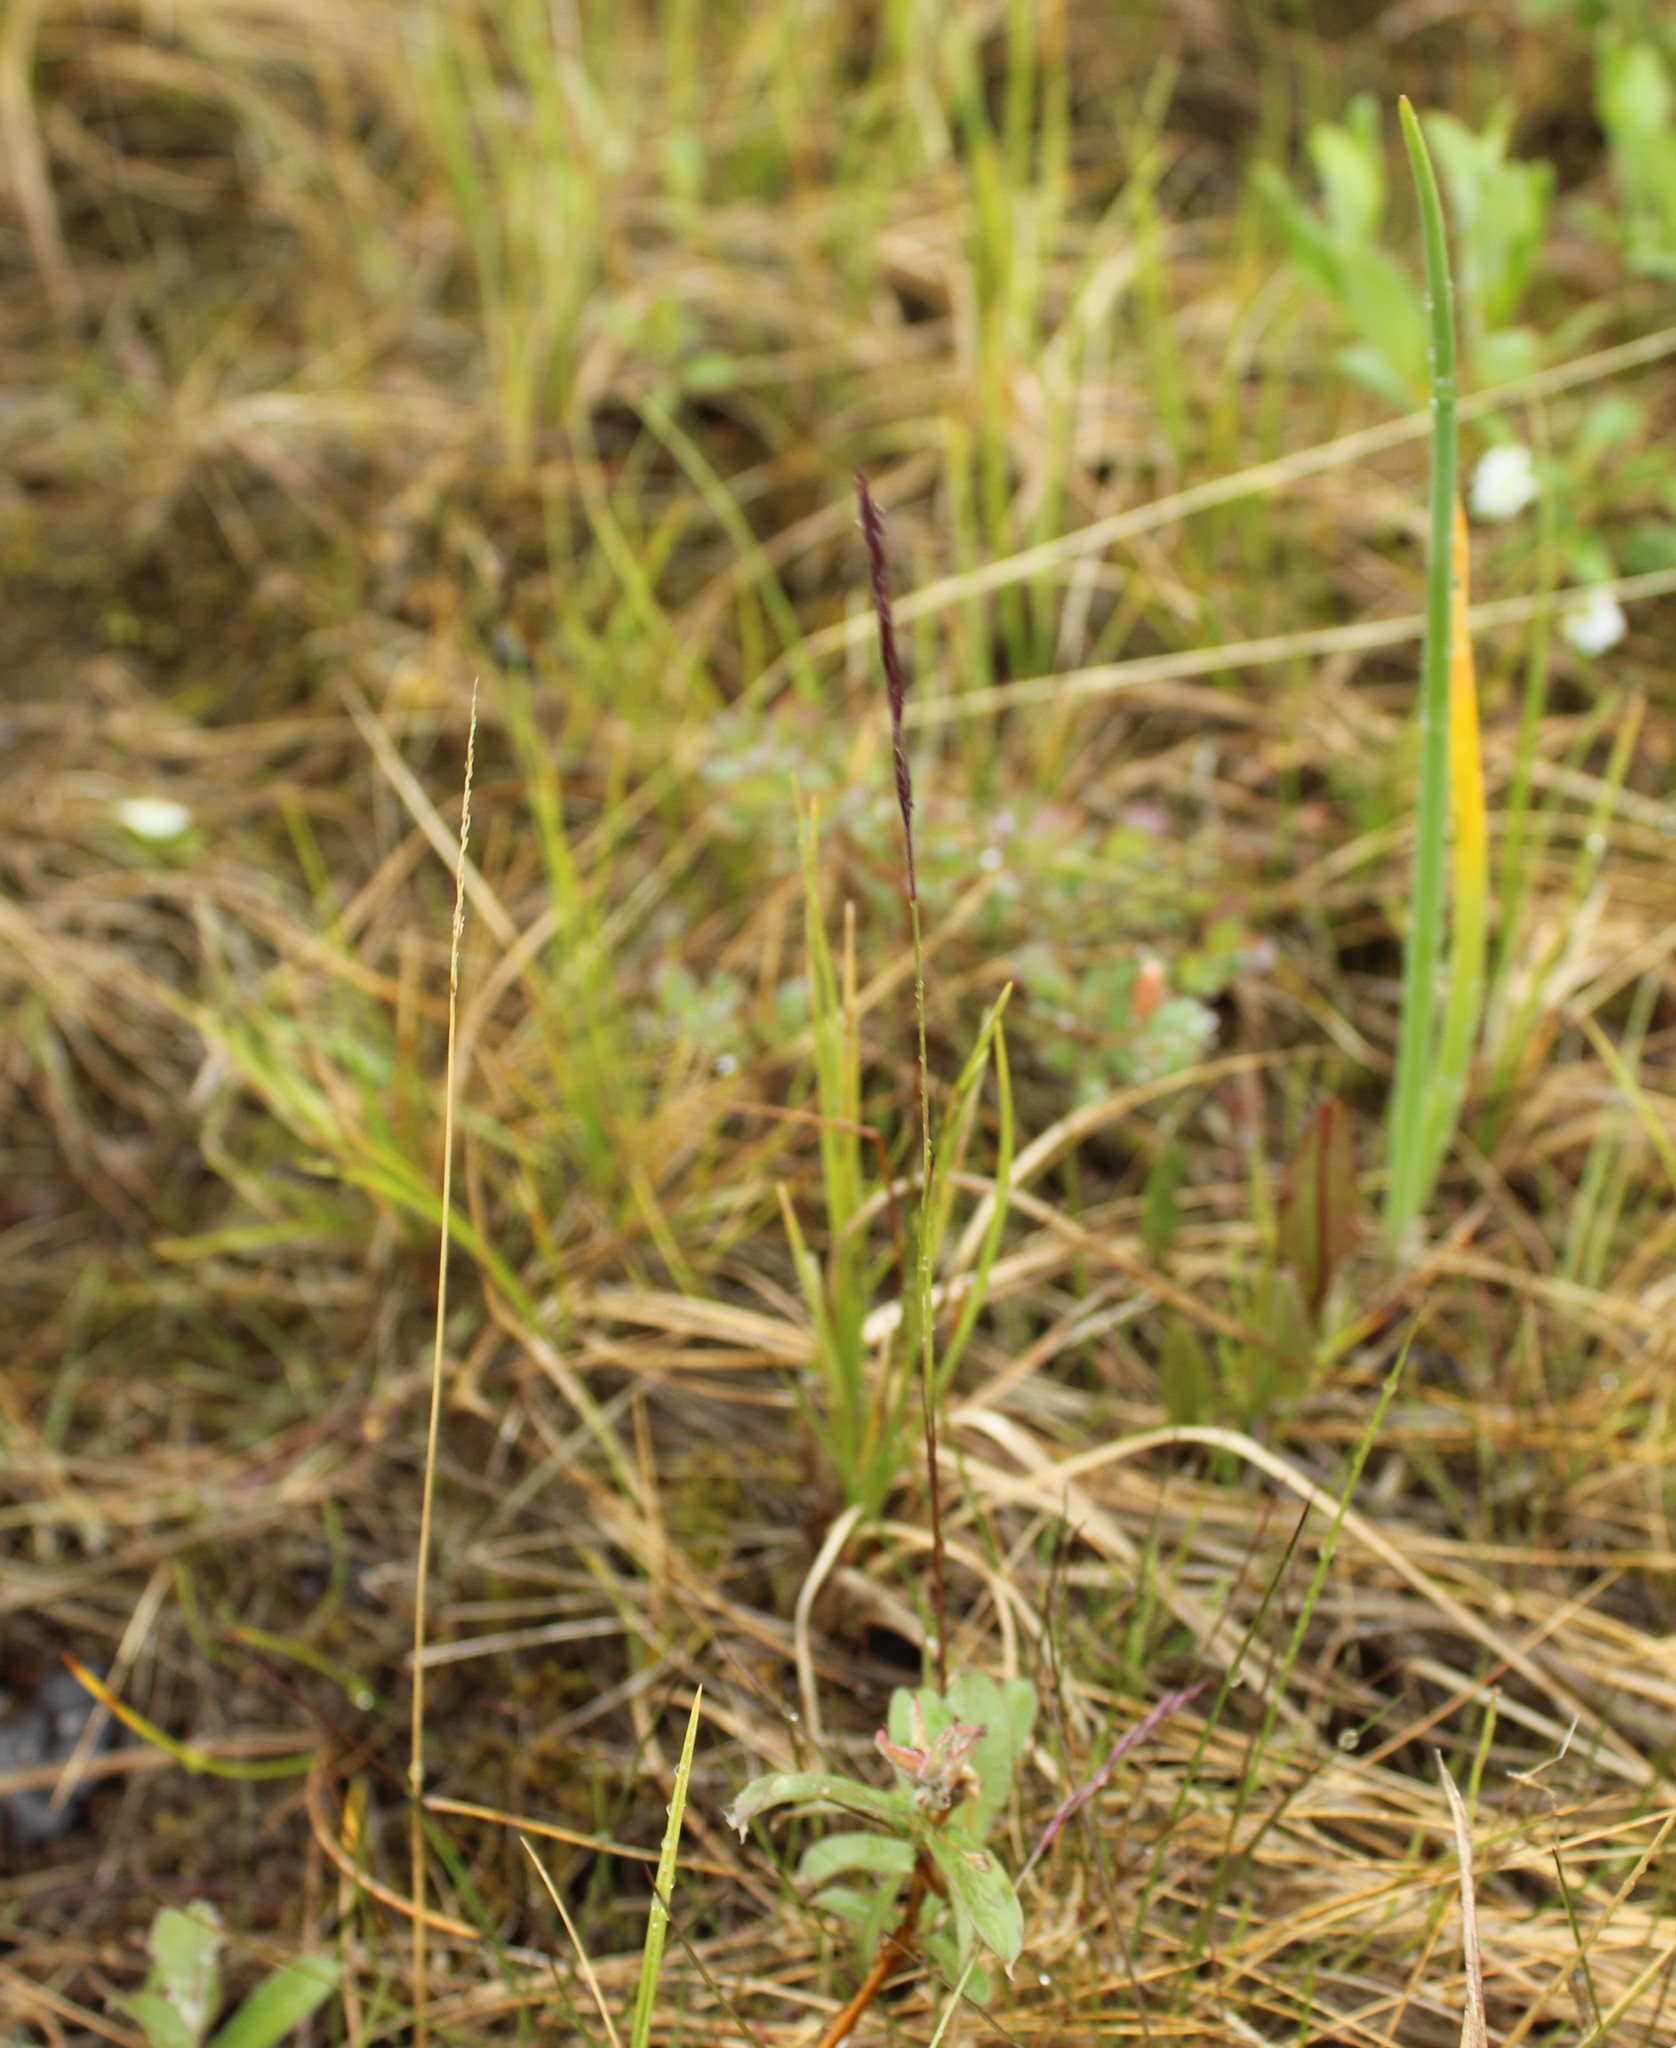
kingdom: Plantae
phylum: Tracheophyta
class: Liliopsida
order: Poales
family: Poaceae
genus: Festuca
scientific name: Festuca richardsonii
